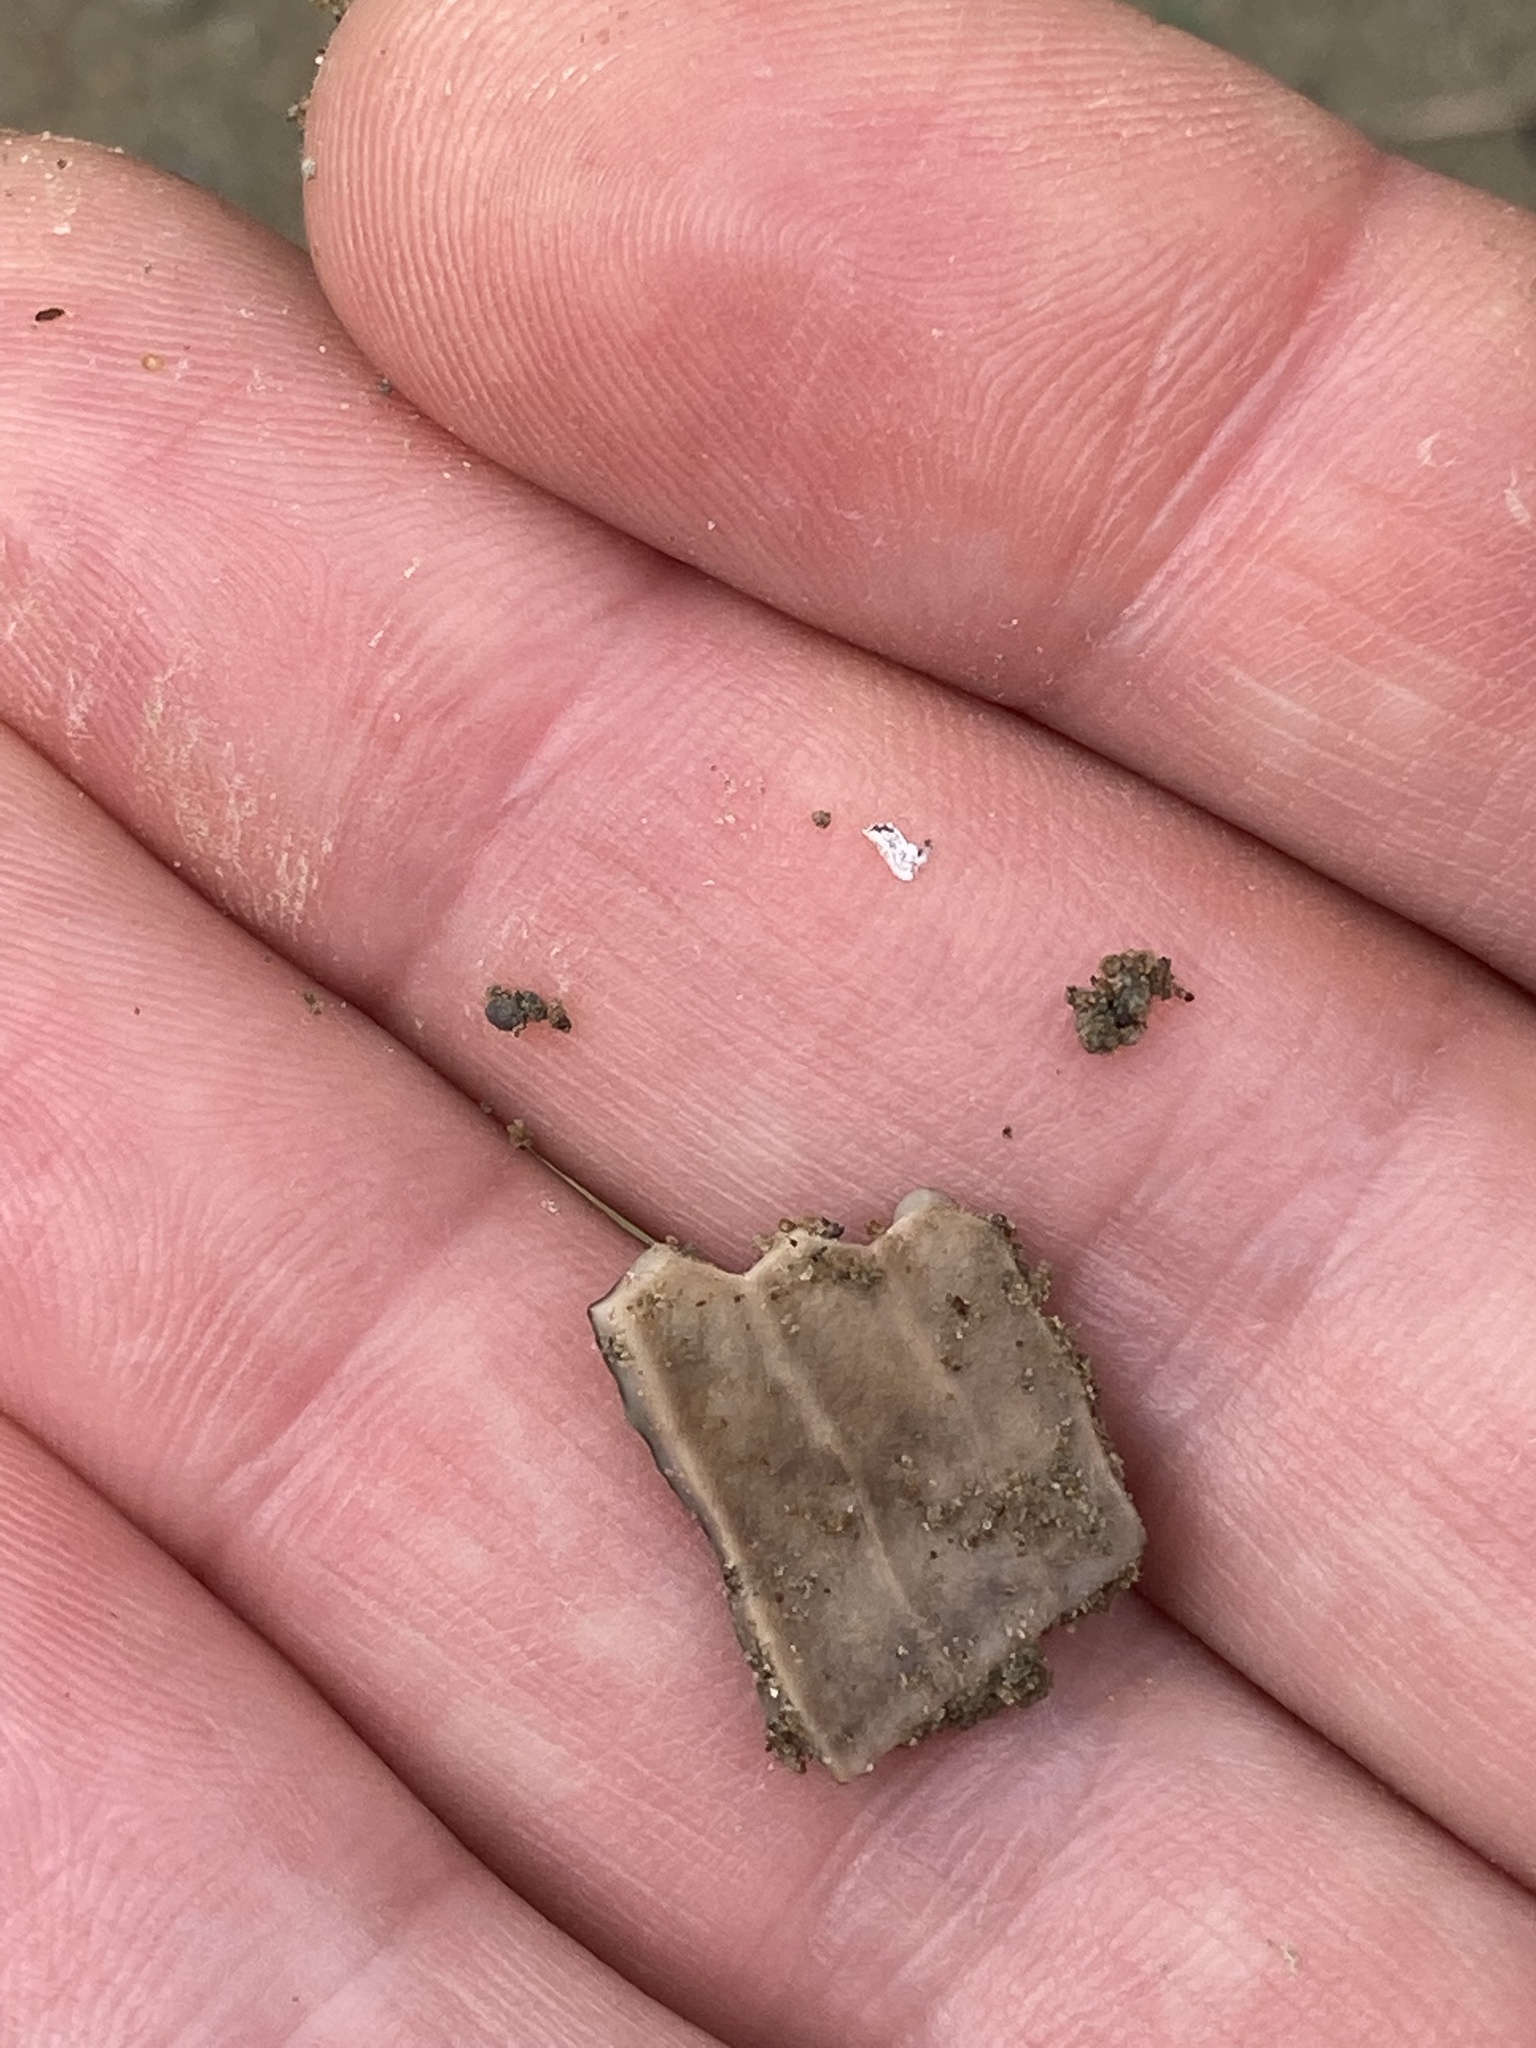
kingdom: Animalia
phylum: Echinodermata
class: Echinoidea
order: Camarodonta
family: Echinometridae
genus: Evechinus
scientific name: Evechinus chloroticus
